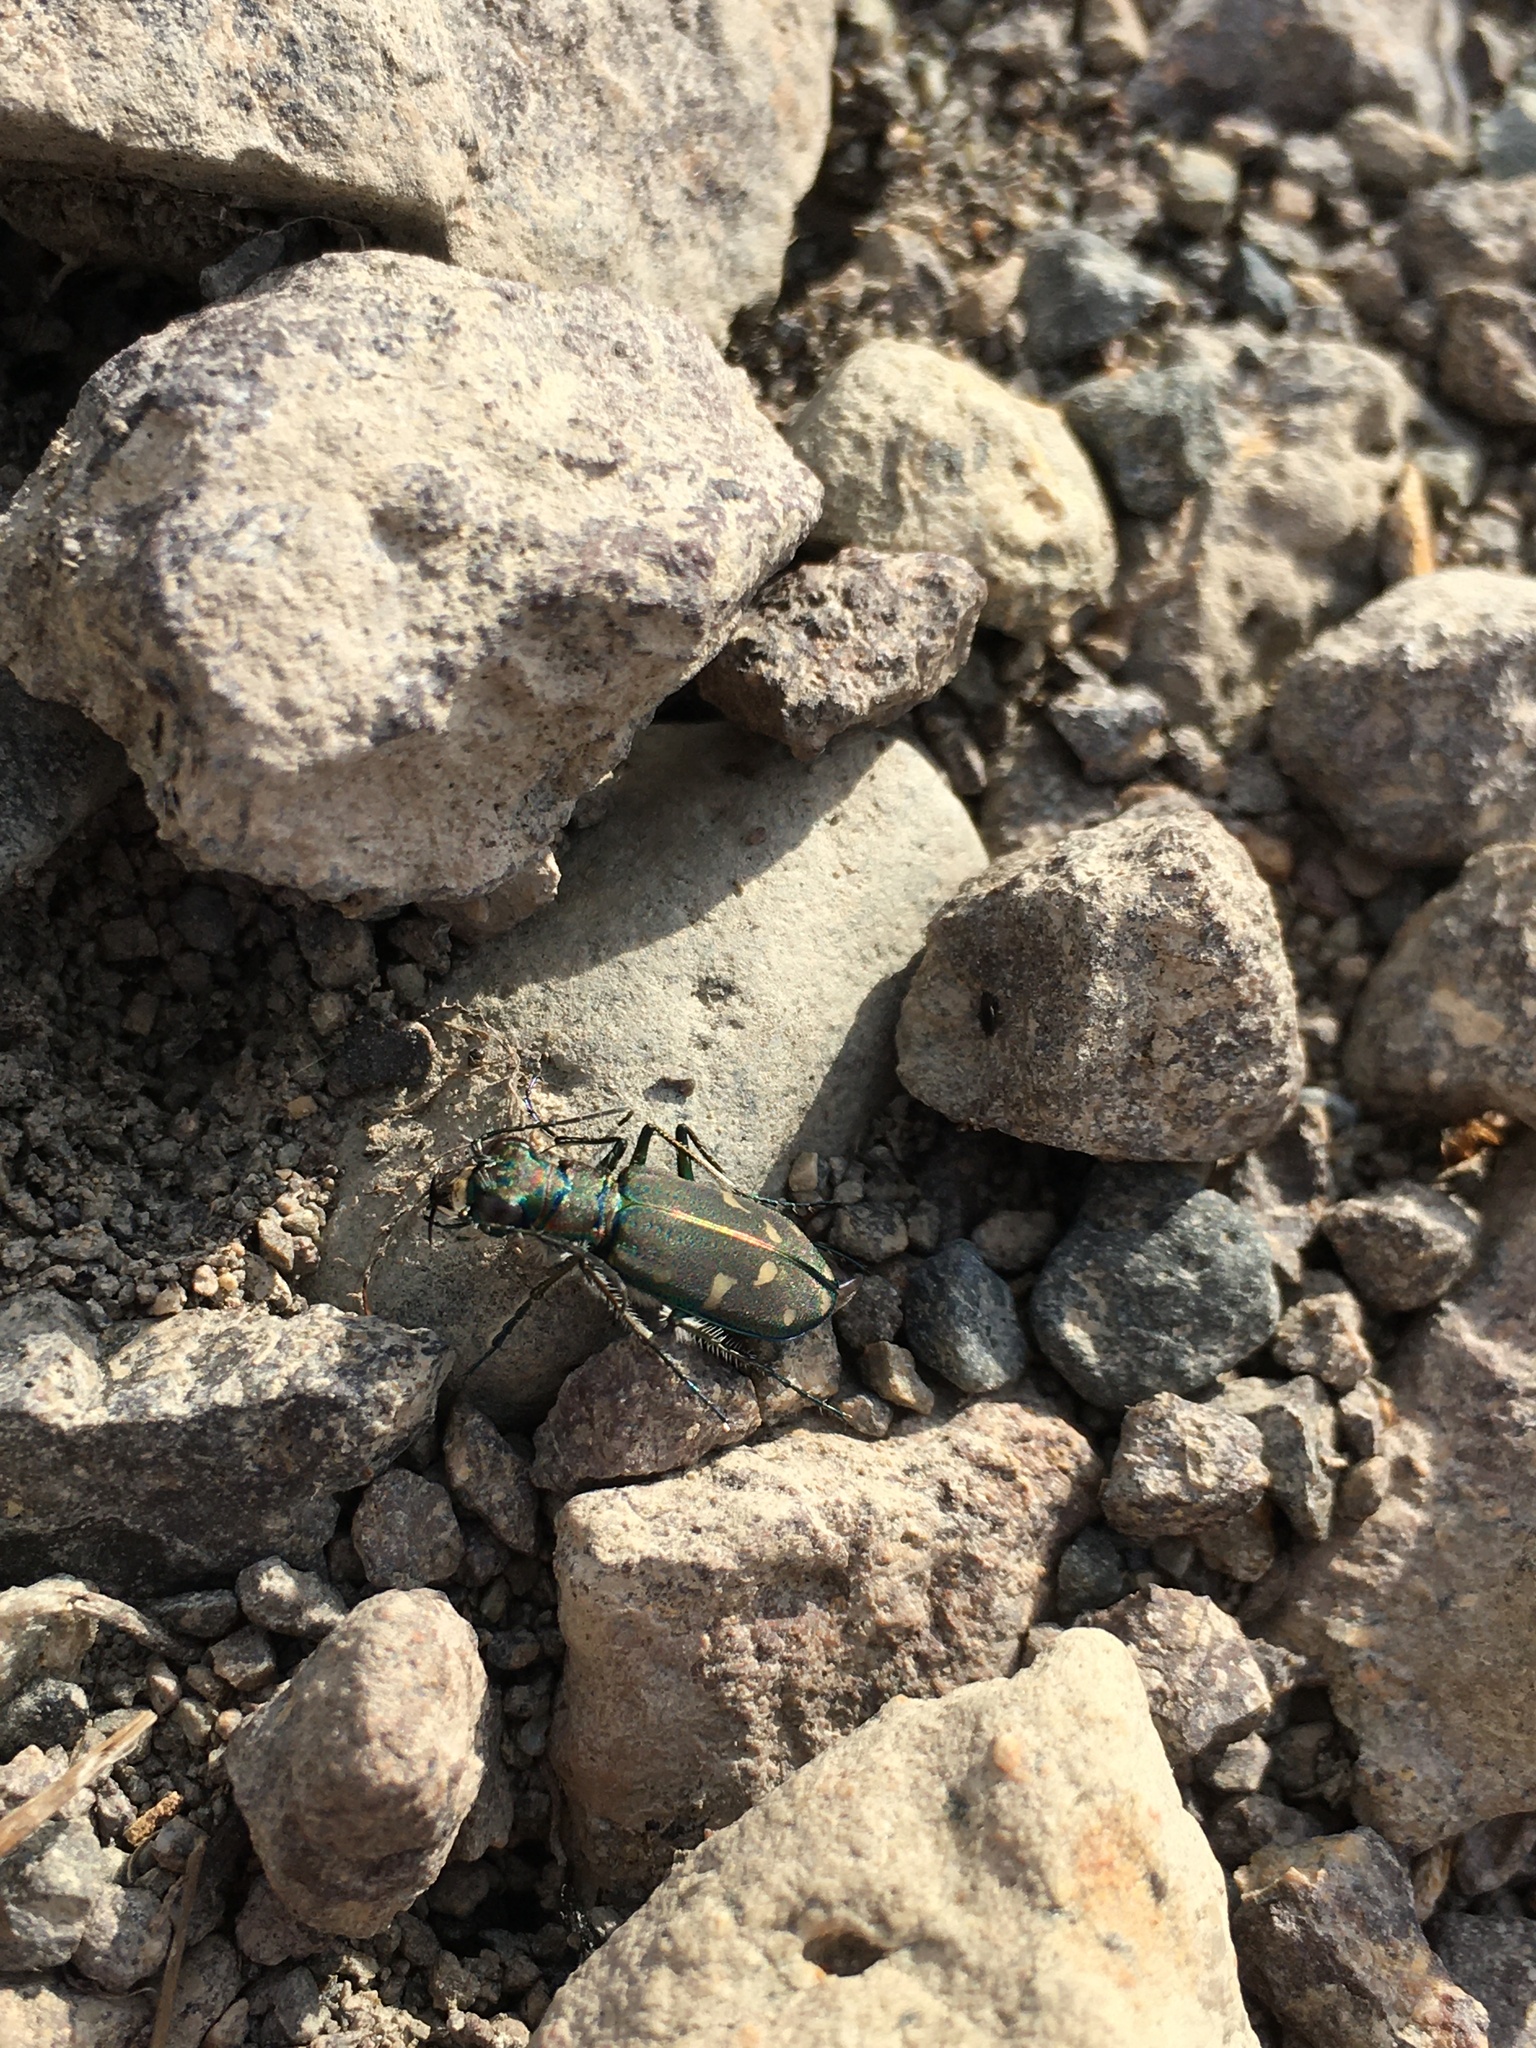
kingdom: Animalia
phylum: Arthropoda
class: Insecta
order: Coleoptera
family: Carabidae
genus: Cicindela
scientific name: Cicindela oregona
